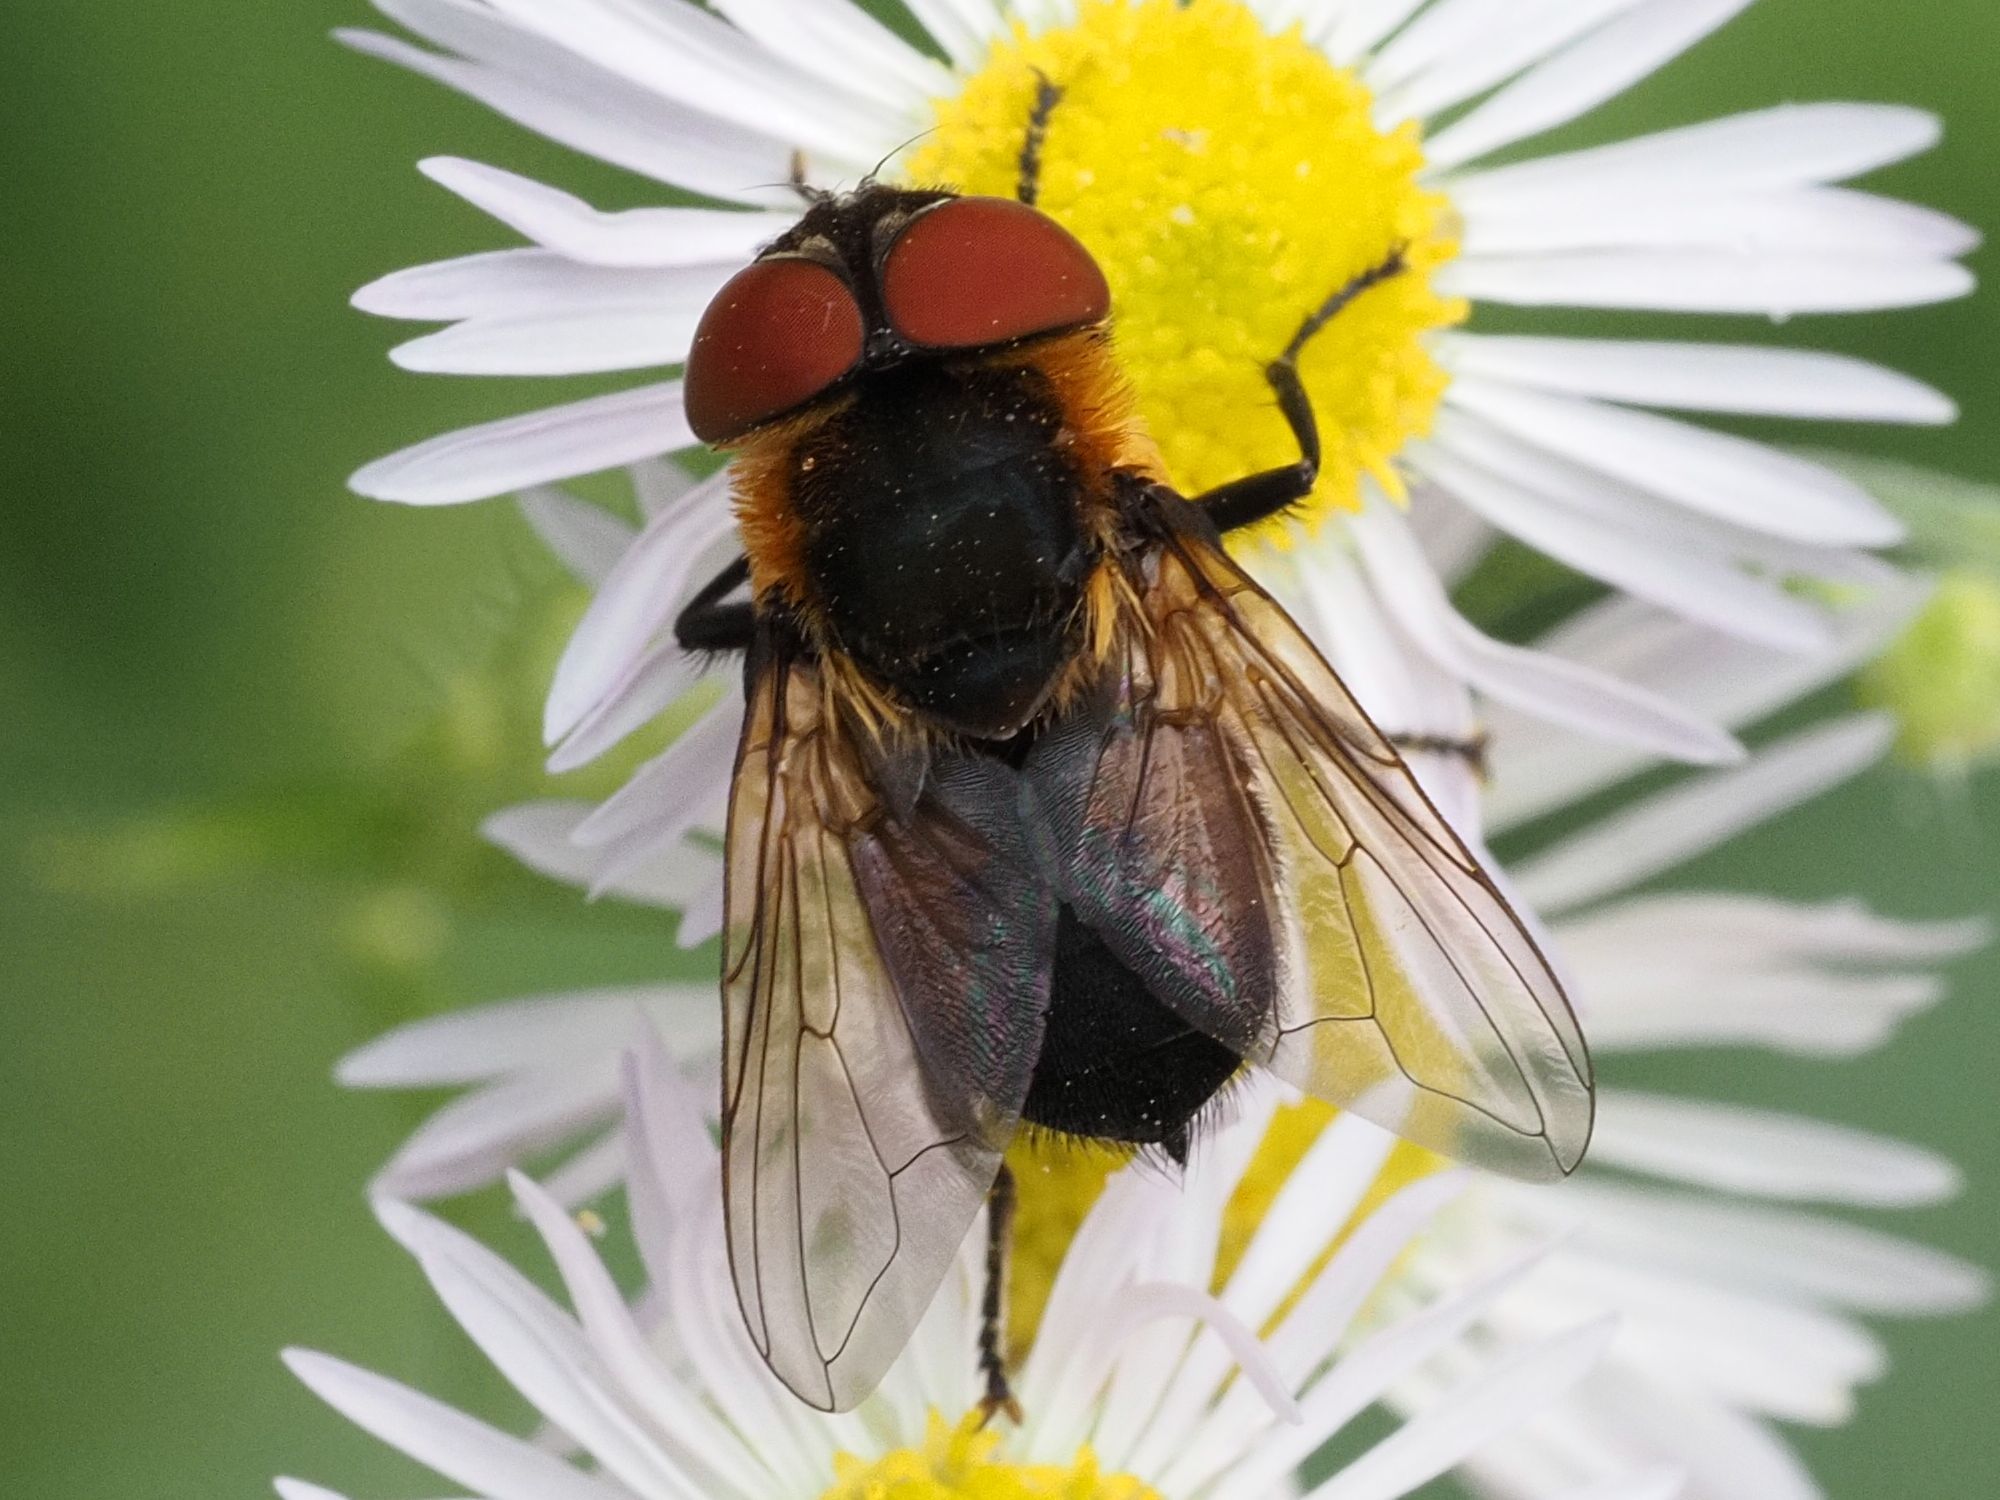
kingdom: Animalia
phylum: Arthropoda
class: Insecta
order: Diptera
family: Tachinidae
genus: Phasia
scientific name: Phasia hemiptera
